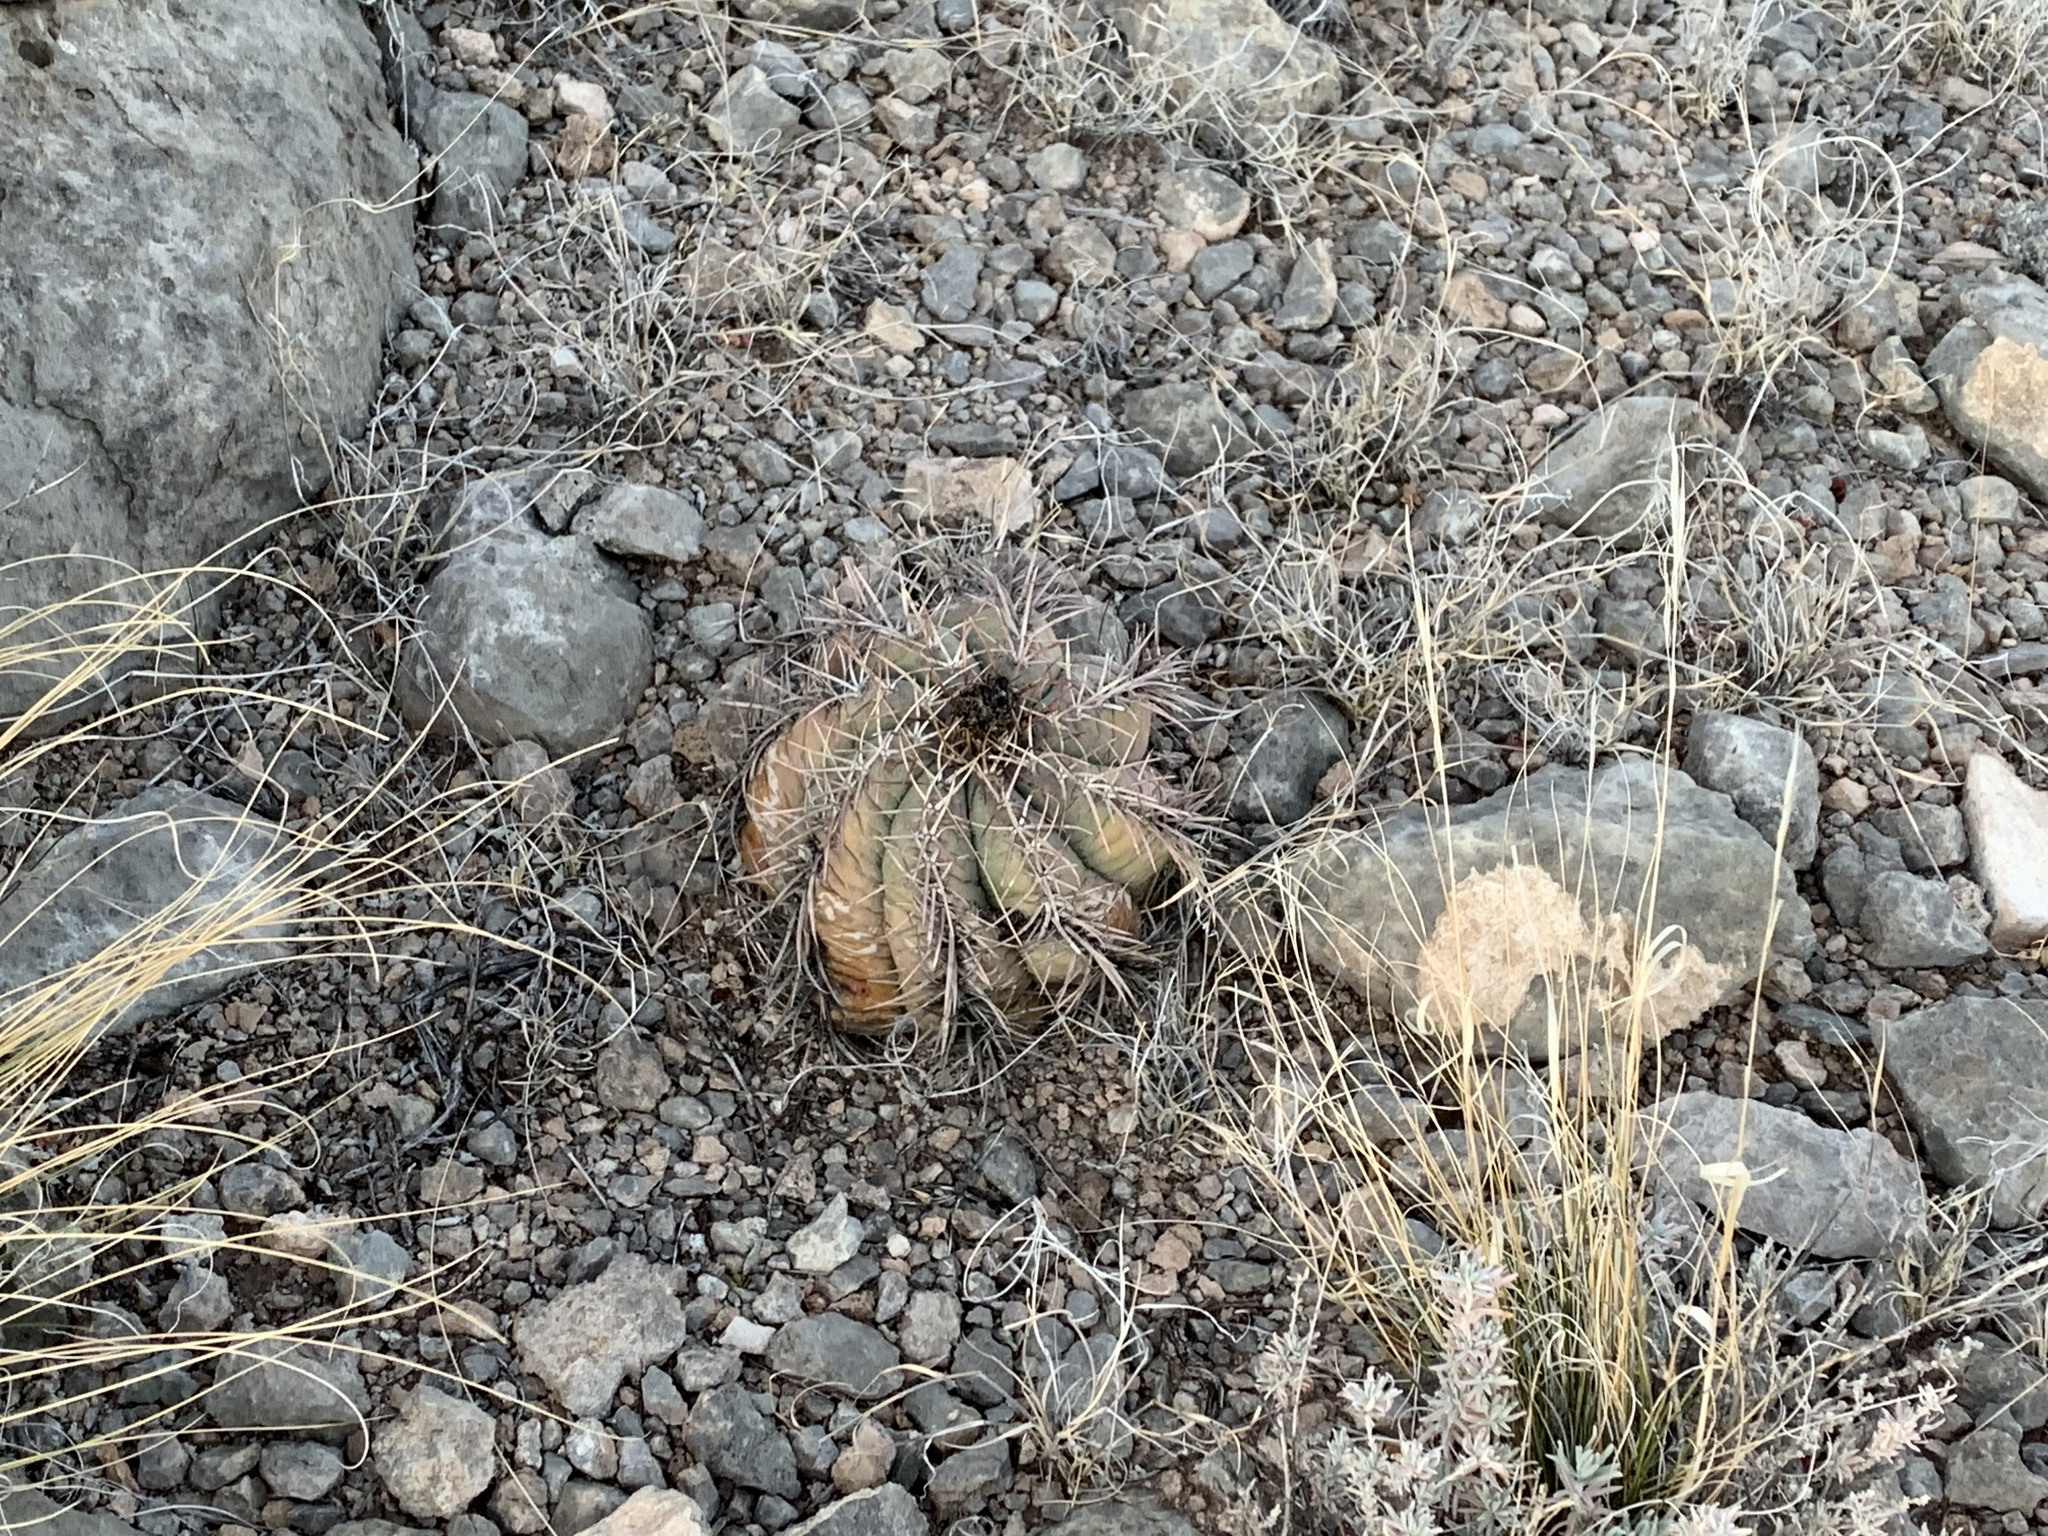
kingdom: Plantae
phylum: Tracheophyta
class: Magnoliopsida
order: Caryophyllales
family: Cactaceae
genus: Echinocactus
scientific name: Echinocactus horizonthalonius
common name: Devilshead
